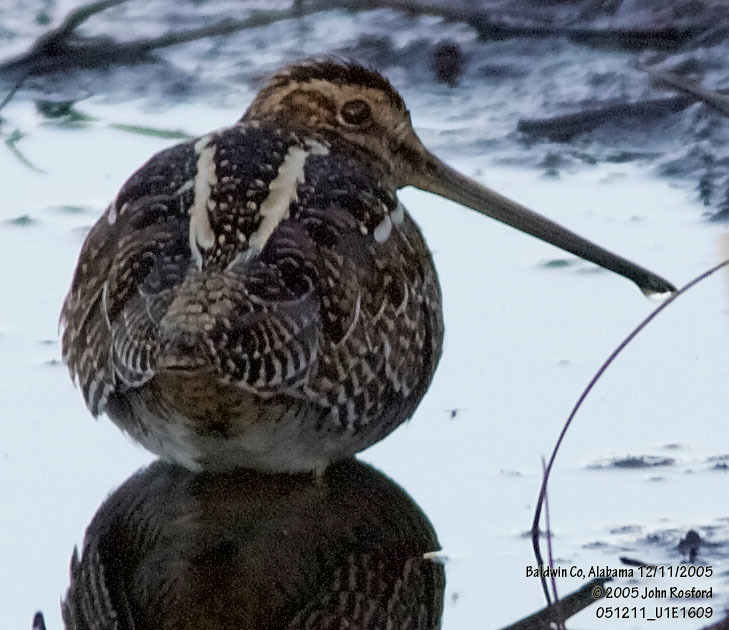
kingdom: Animalia
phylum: Chordata
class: Aves
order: Charadriiformes
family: Scolopacidae
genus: Gallinago
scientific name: Gallinago delicata
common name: Wilson's snipe
